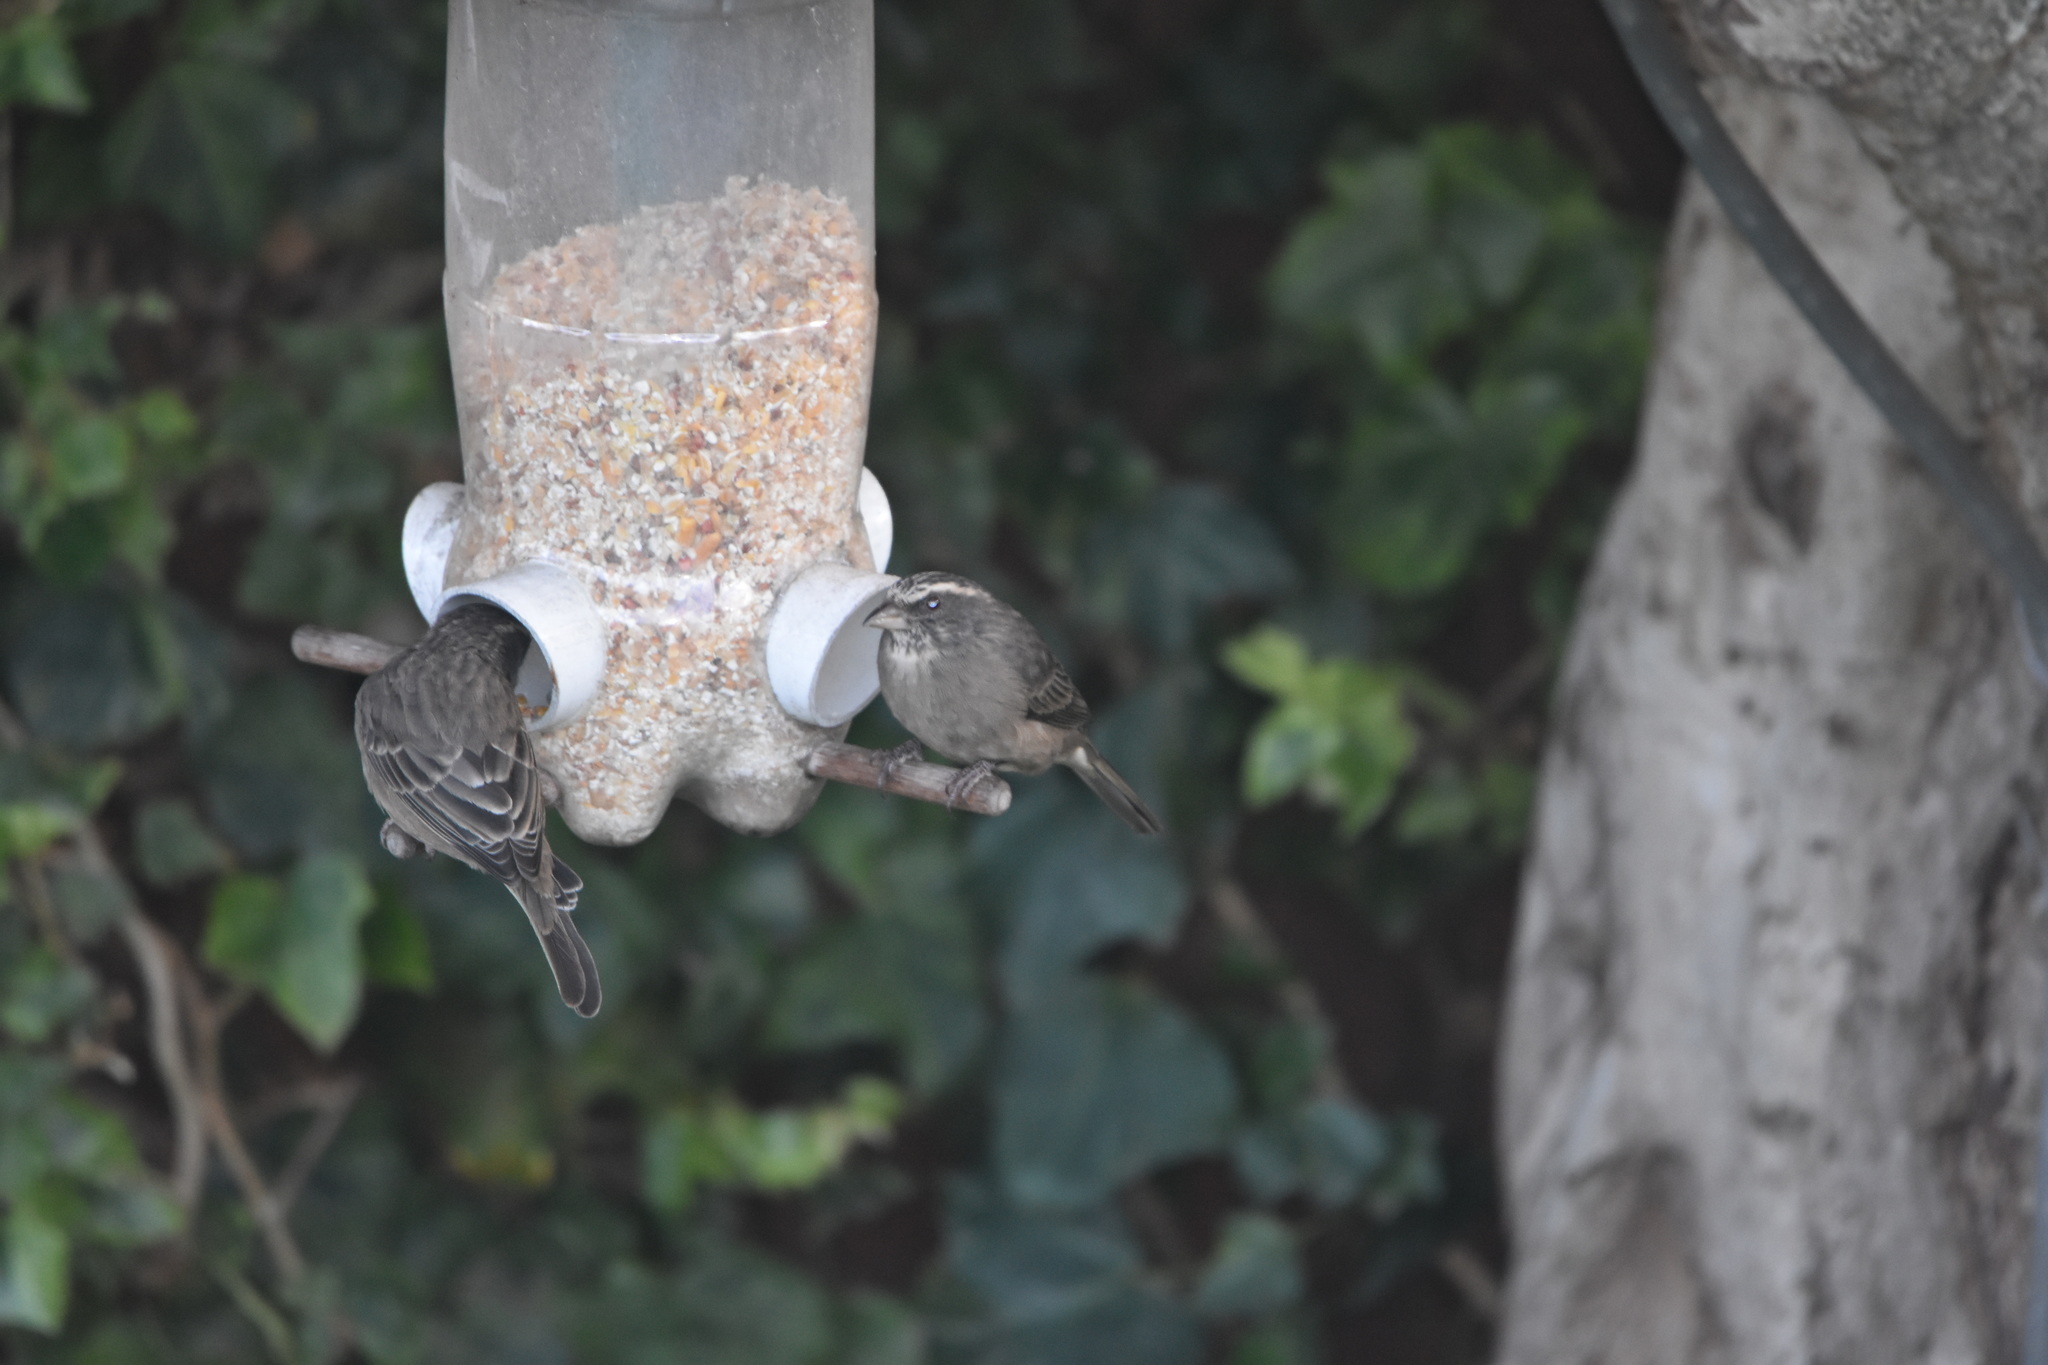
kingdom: Animalia
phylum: Chordata
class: Aves
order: Passeriformes
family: Fringillidae
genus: Crithagra
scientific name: Crithagra gularis
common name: Streaky-headed seedeater
